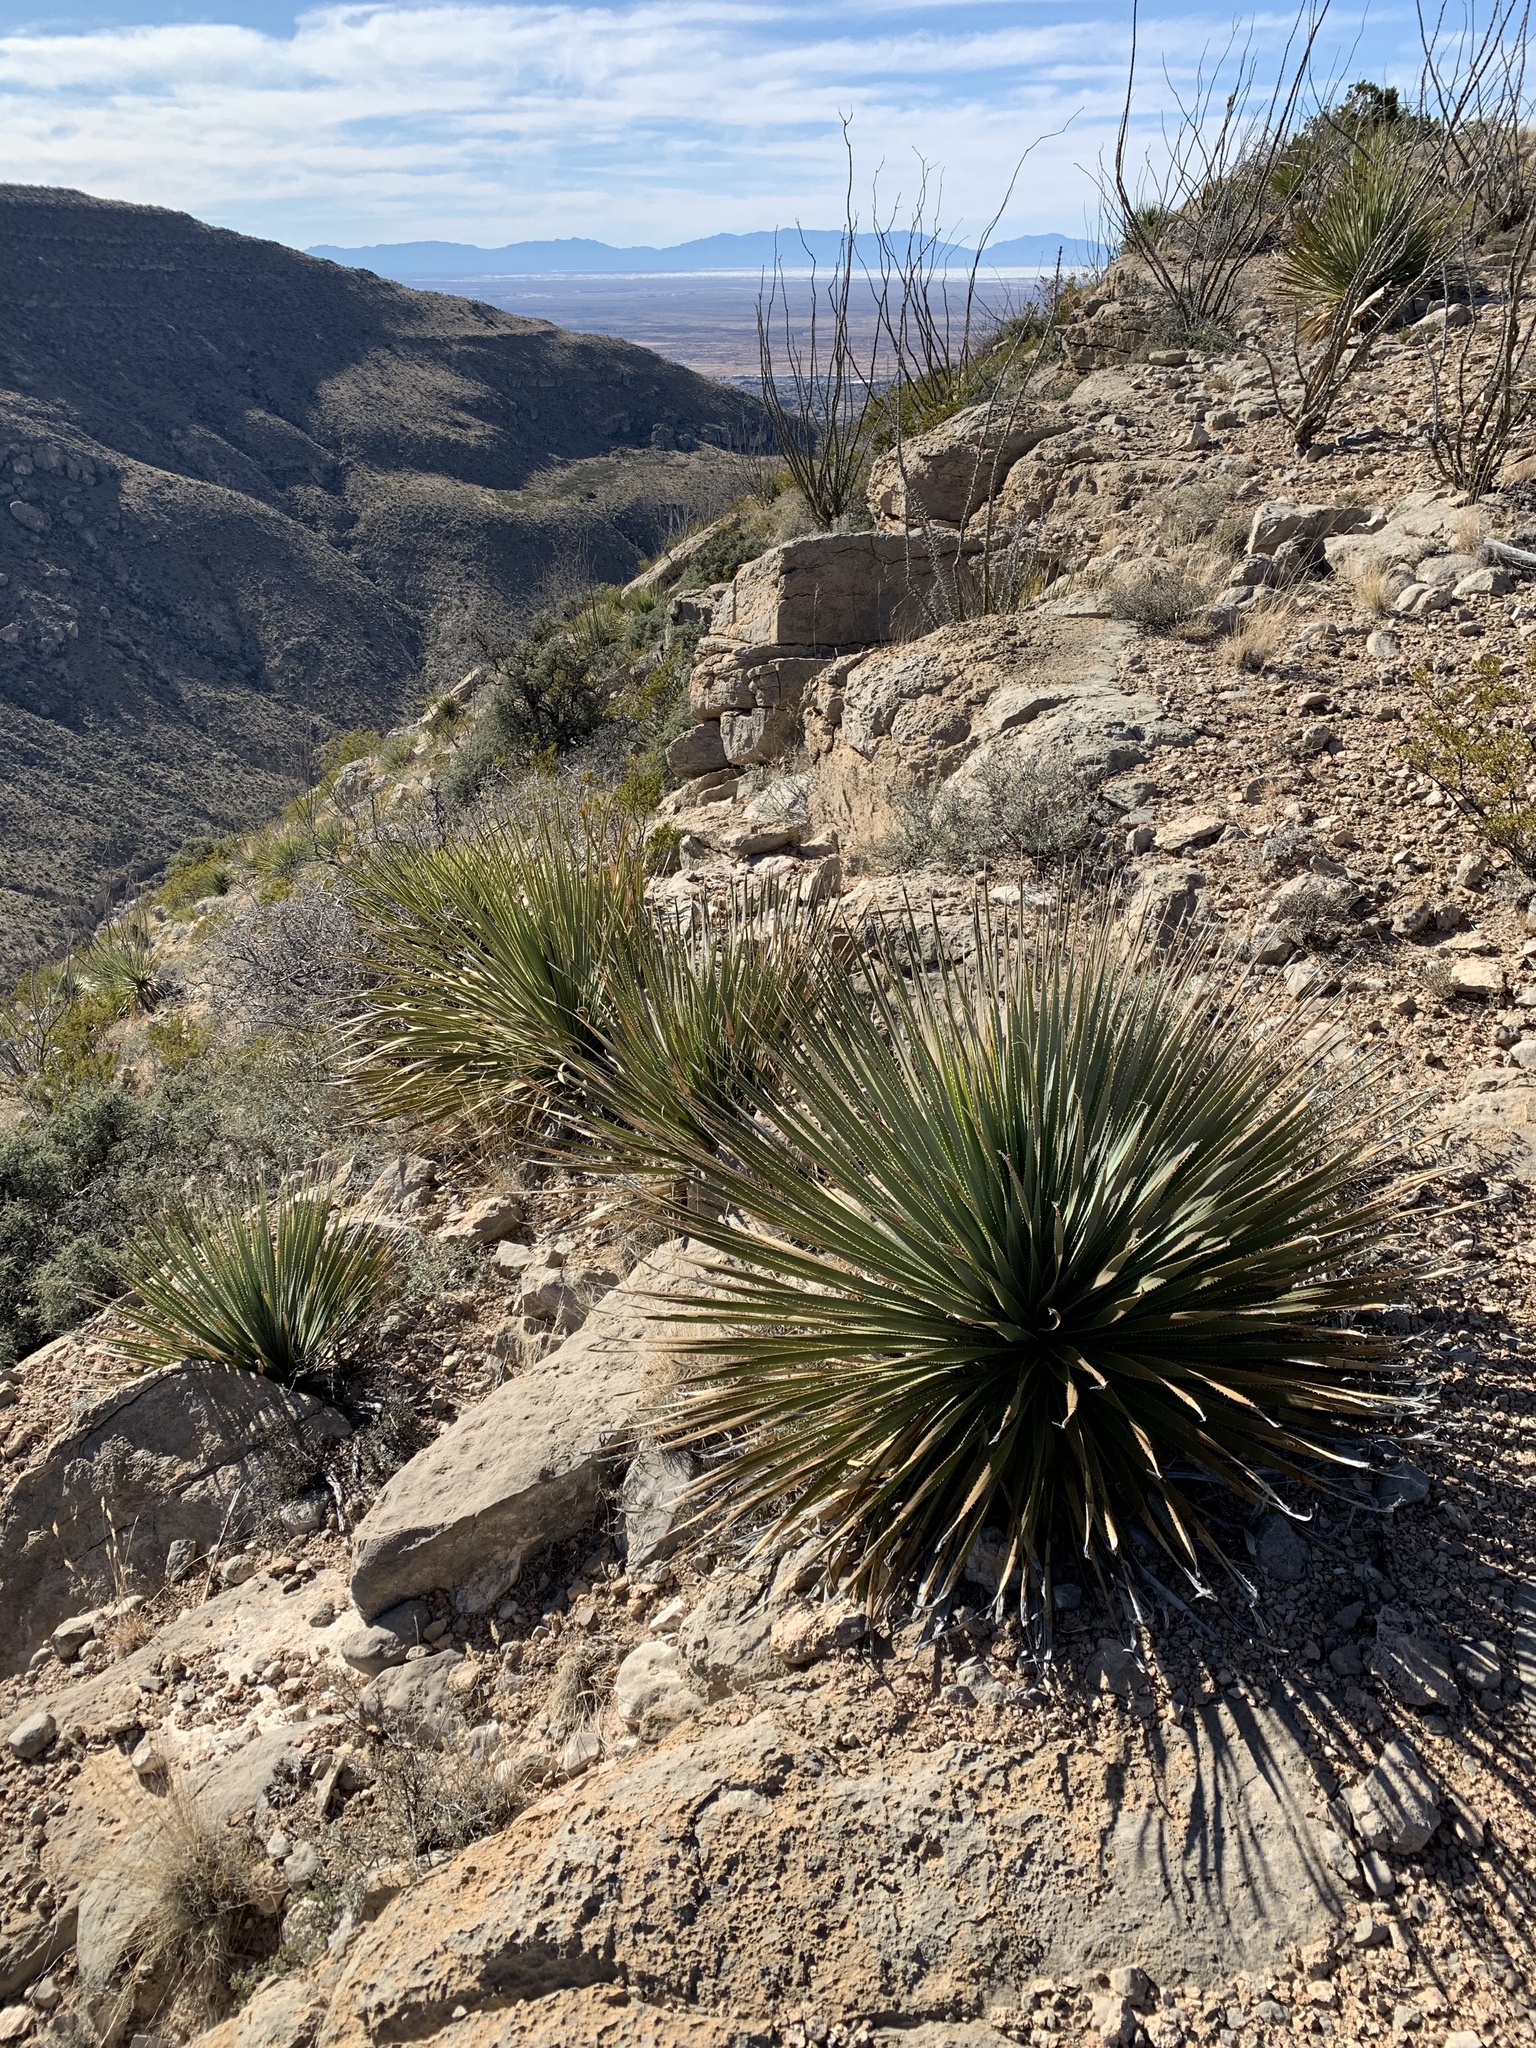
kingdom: Plantae
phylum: Tracheophyta
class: Liliopsida
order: Asparagales
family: Asparagaceae
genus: Dasylirion
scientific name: Dasylirion wheeleri
